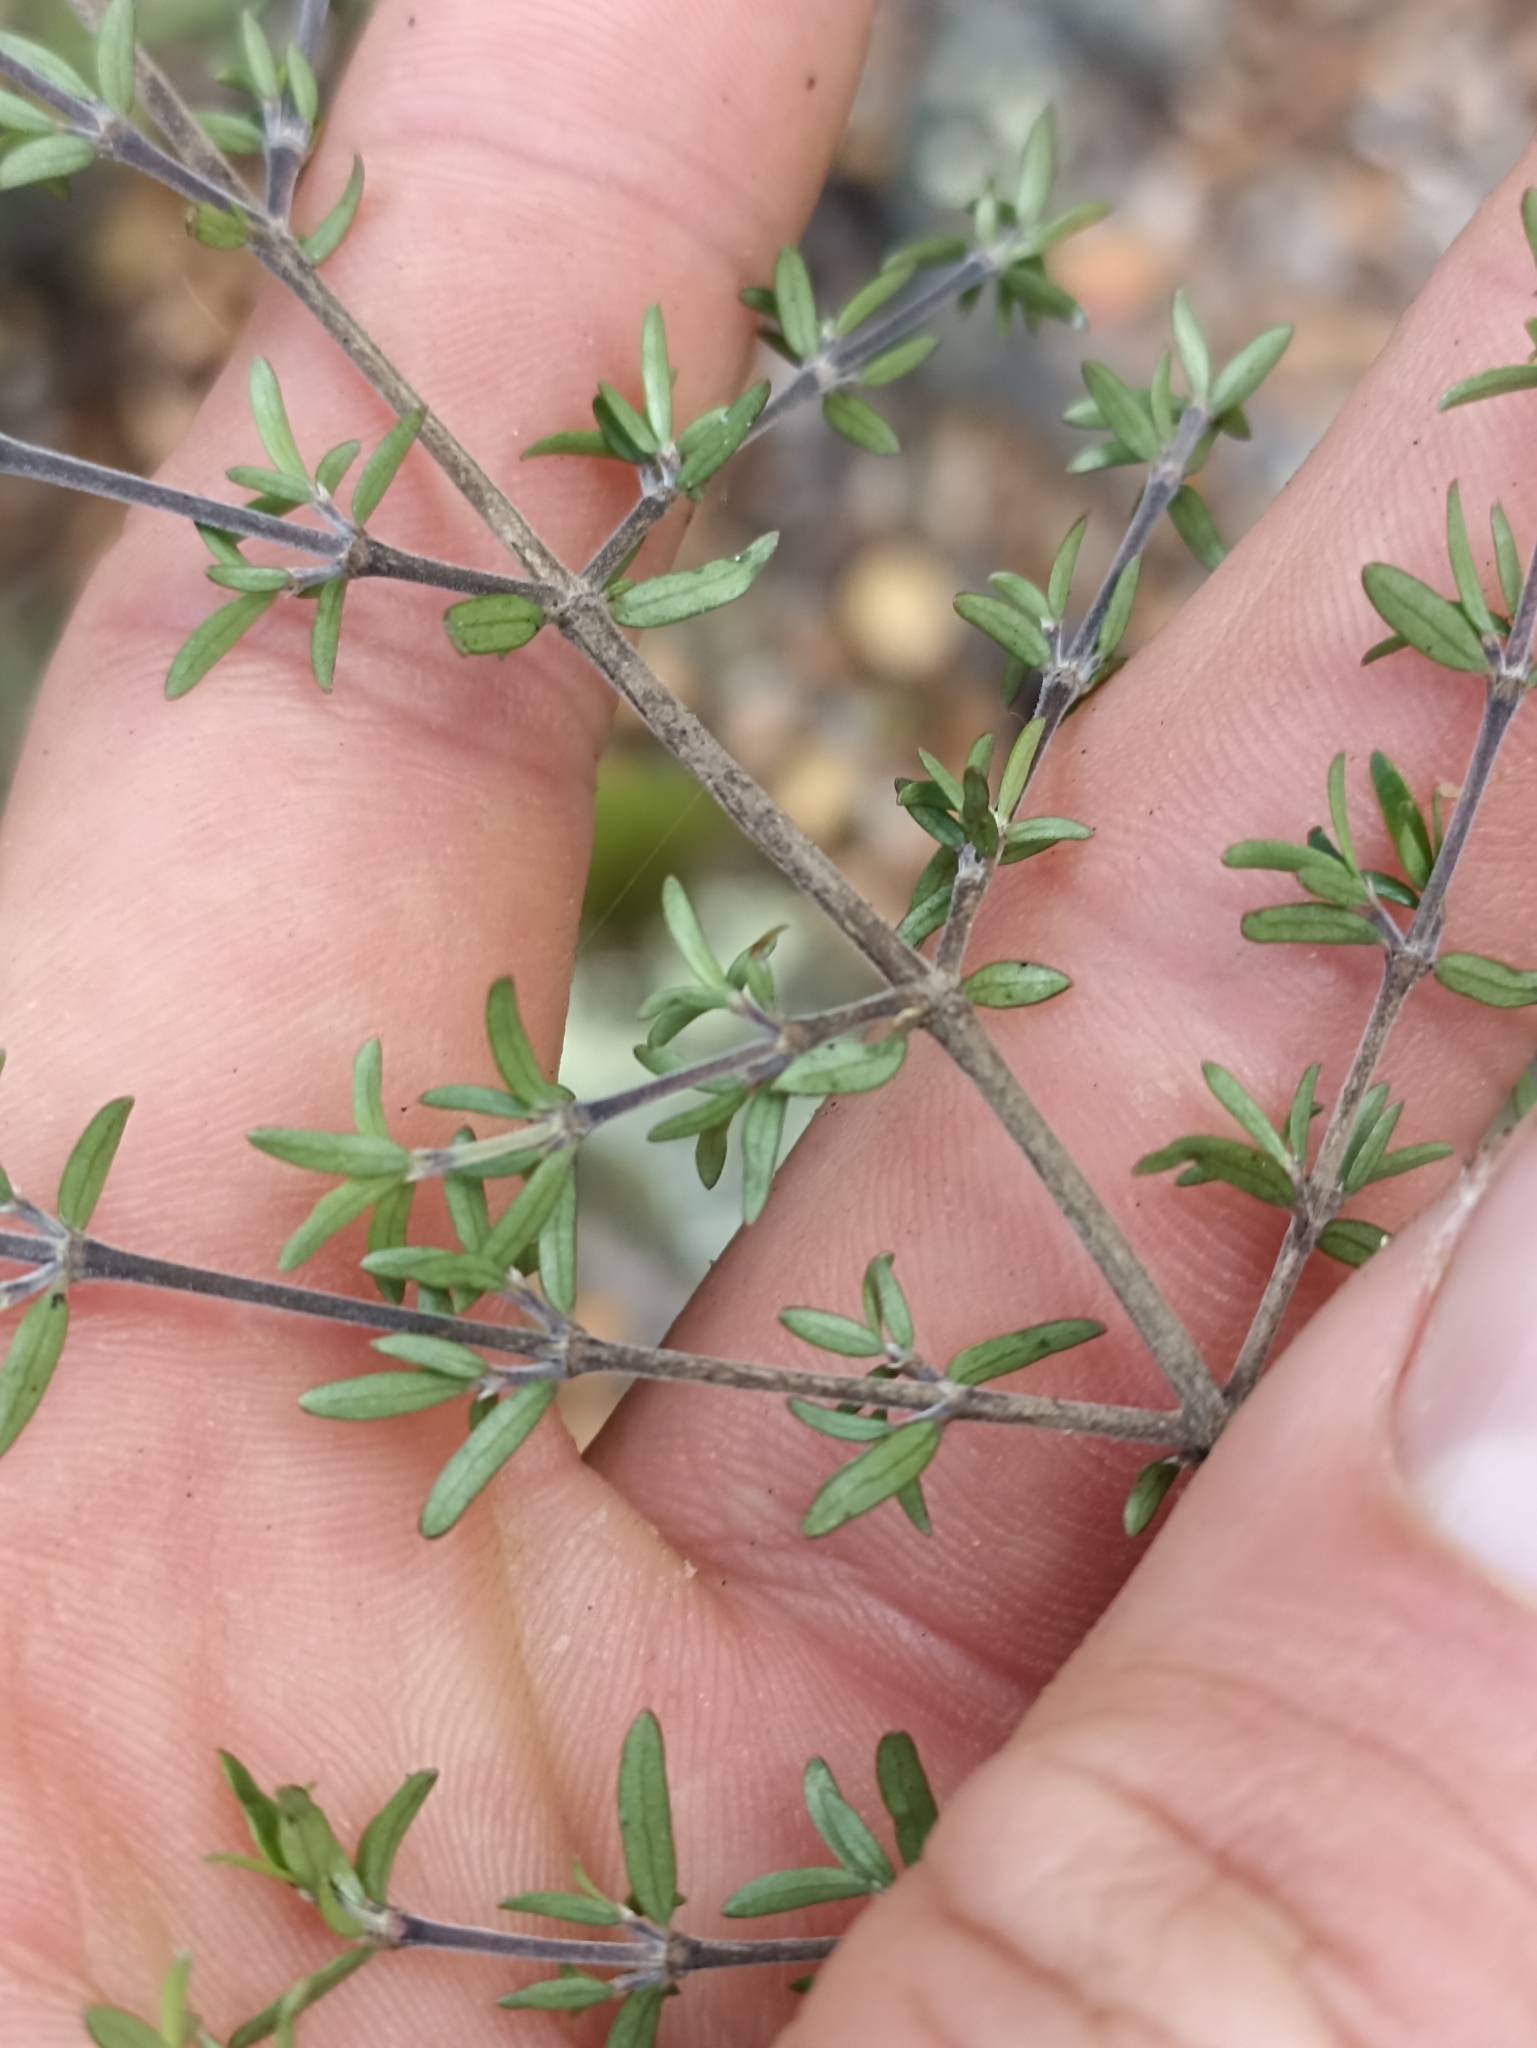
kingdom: Plantae
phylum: Tracheophyta
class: Magnoliopsida
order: Gentianales
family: Rubiaceae
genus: Coprosma
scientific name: Coprosma microcarpa
